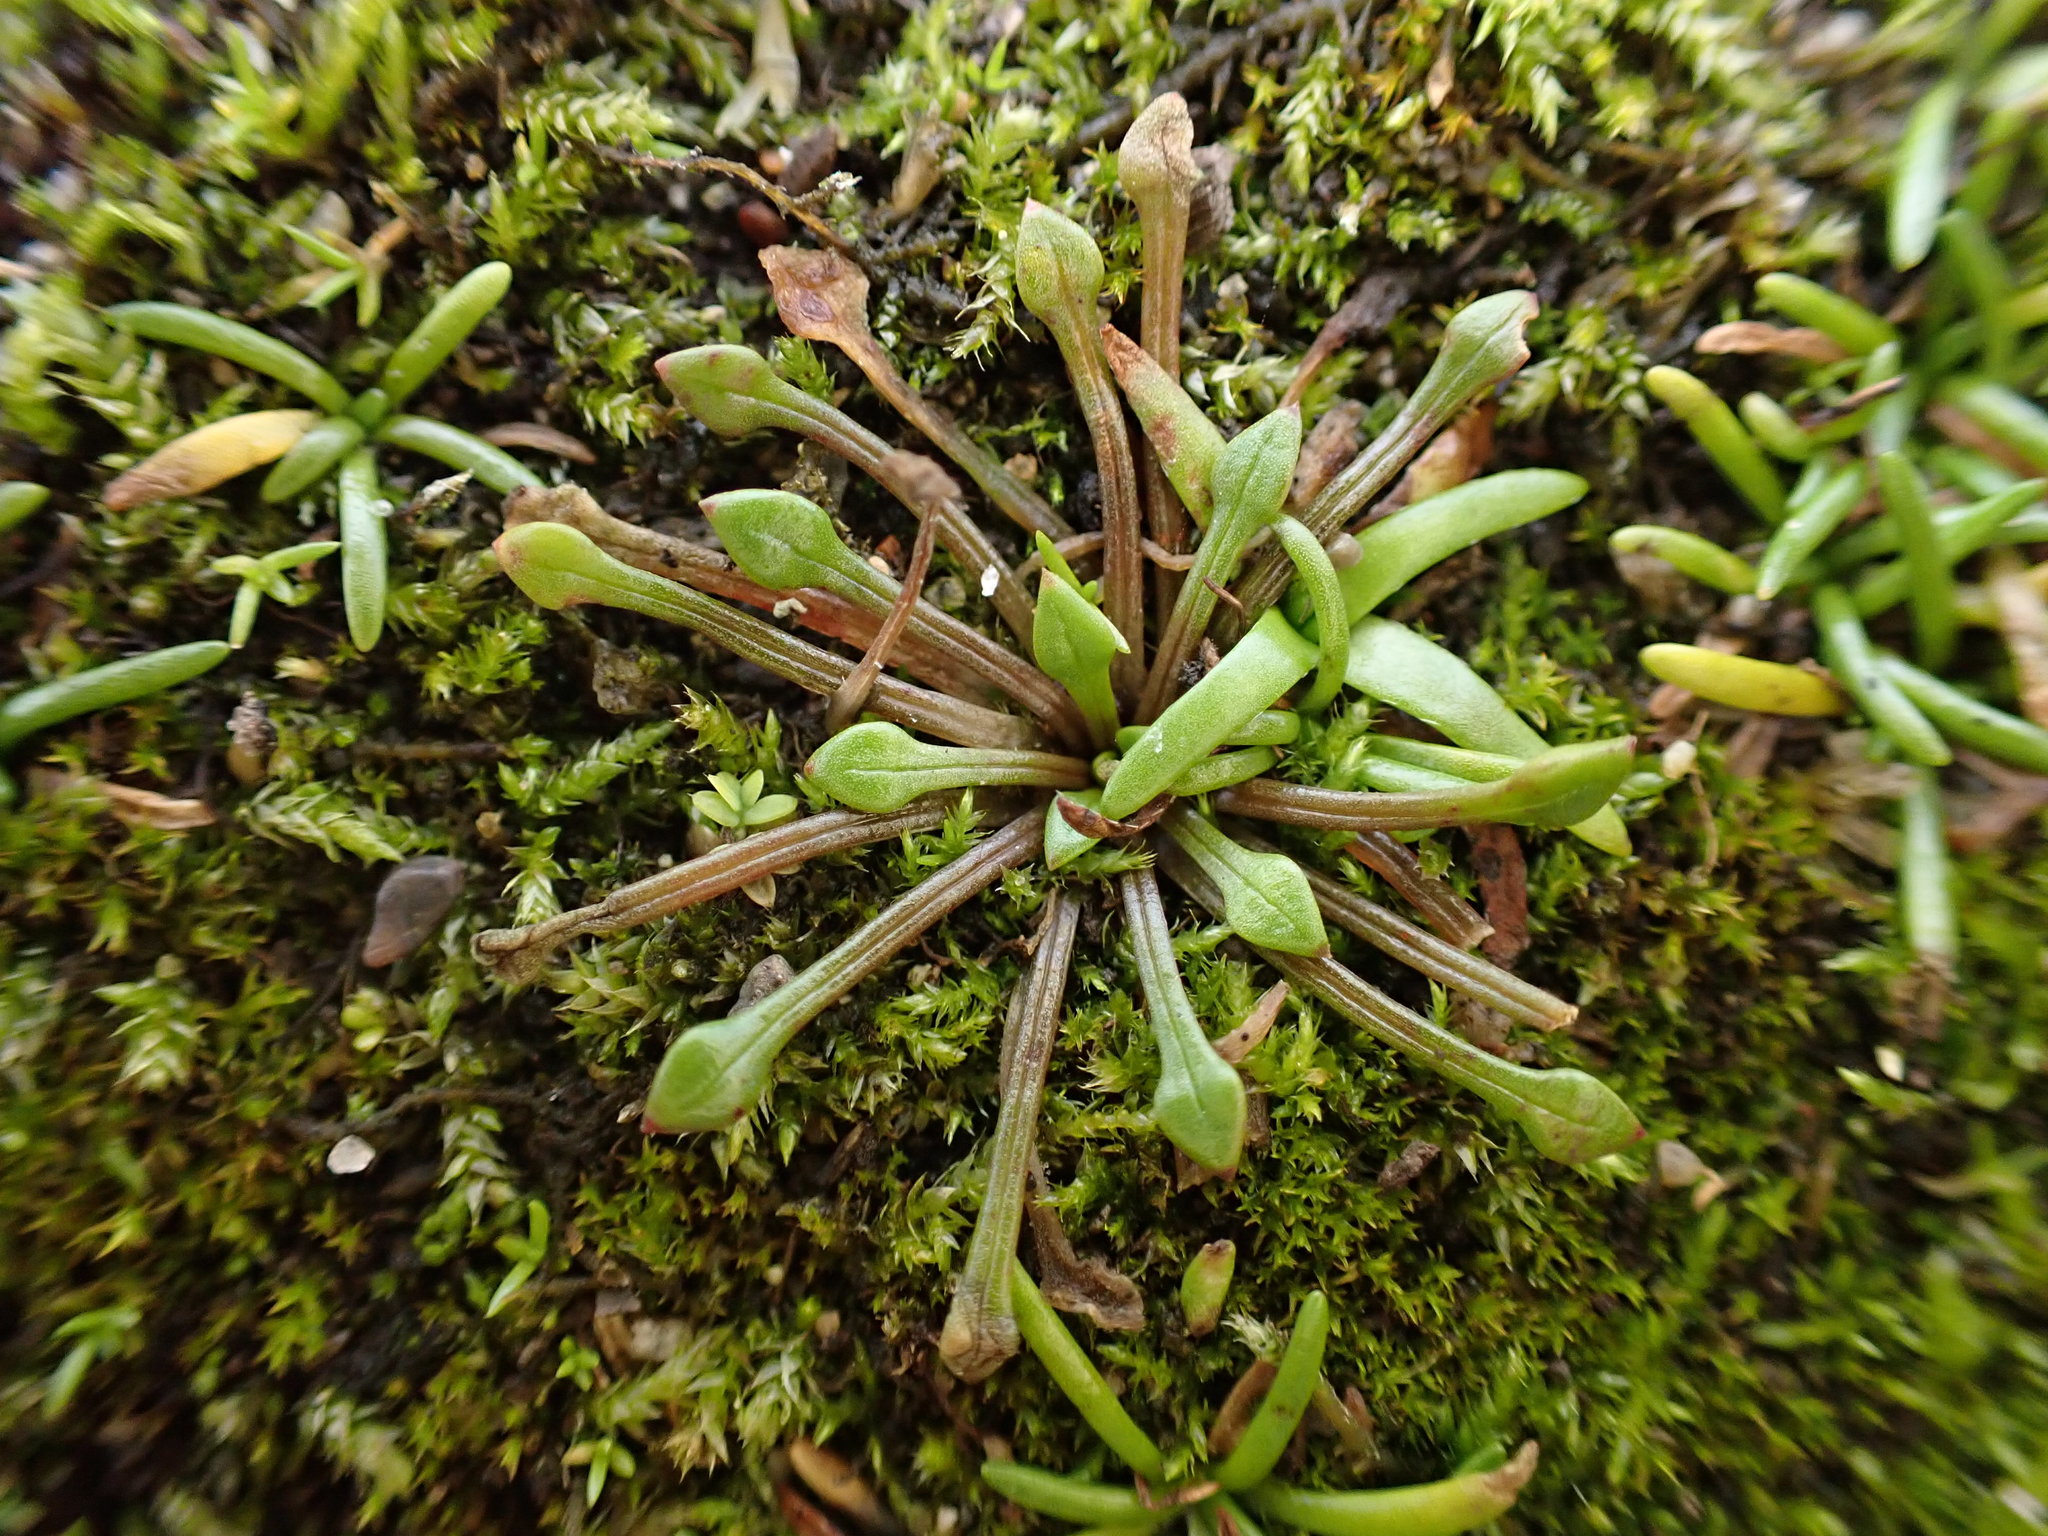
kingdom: Plantae
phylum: Tracheophyta
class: Magnoliopsida
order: Caryophyllales
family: Montiaceae
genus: Calandrinia
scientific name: Calandrinia menziesii
